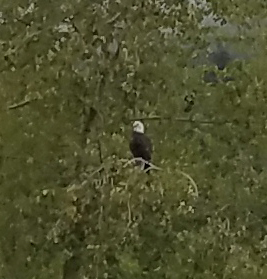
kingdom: Animalia
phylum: Chordata
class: Aves
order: Accipitriformes
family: Accipitridae
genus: Haliaeetus
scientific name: Haliaeetus leucocephalus
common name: Bald eagle
